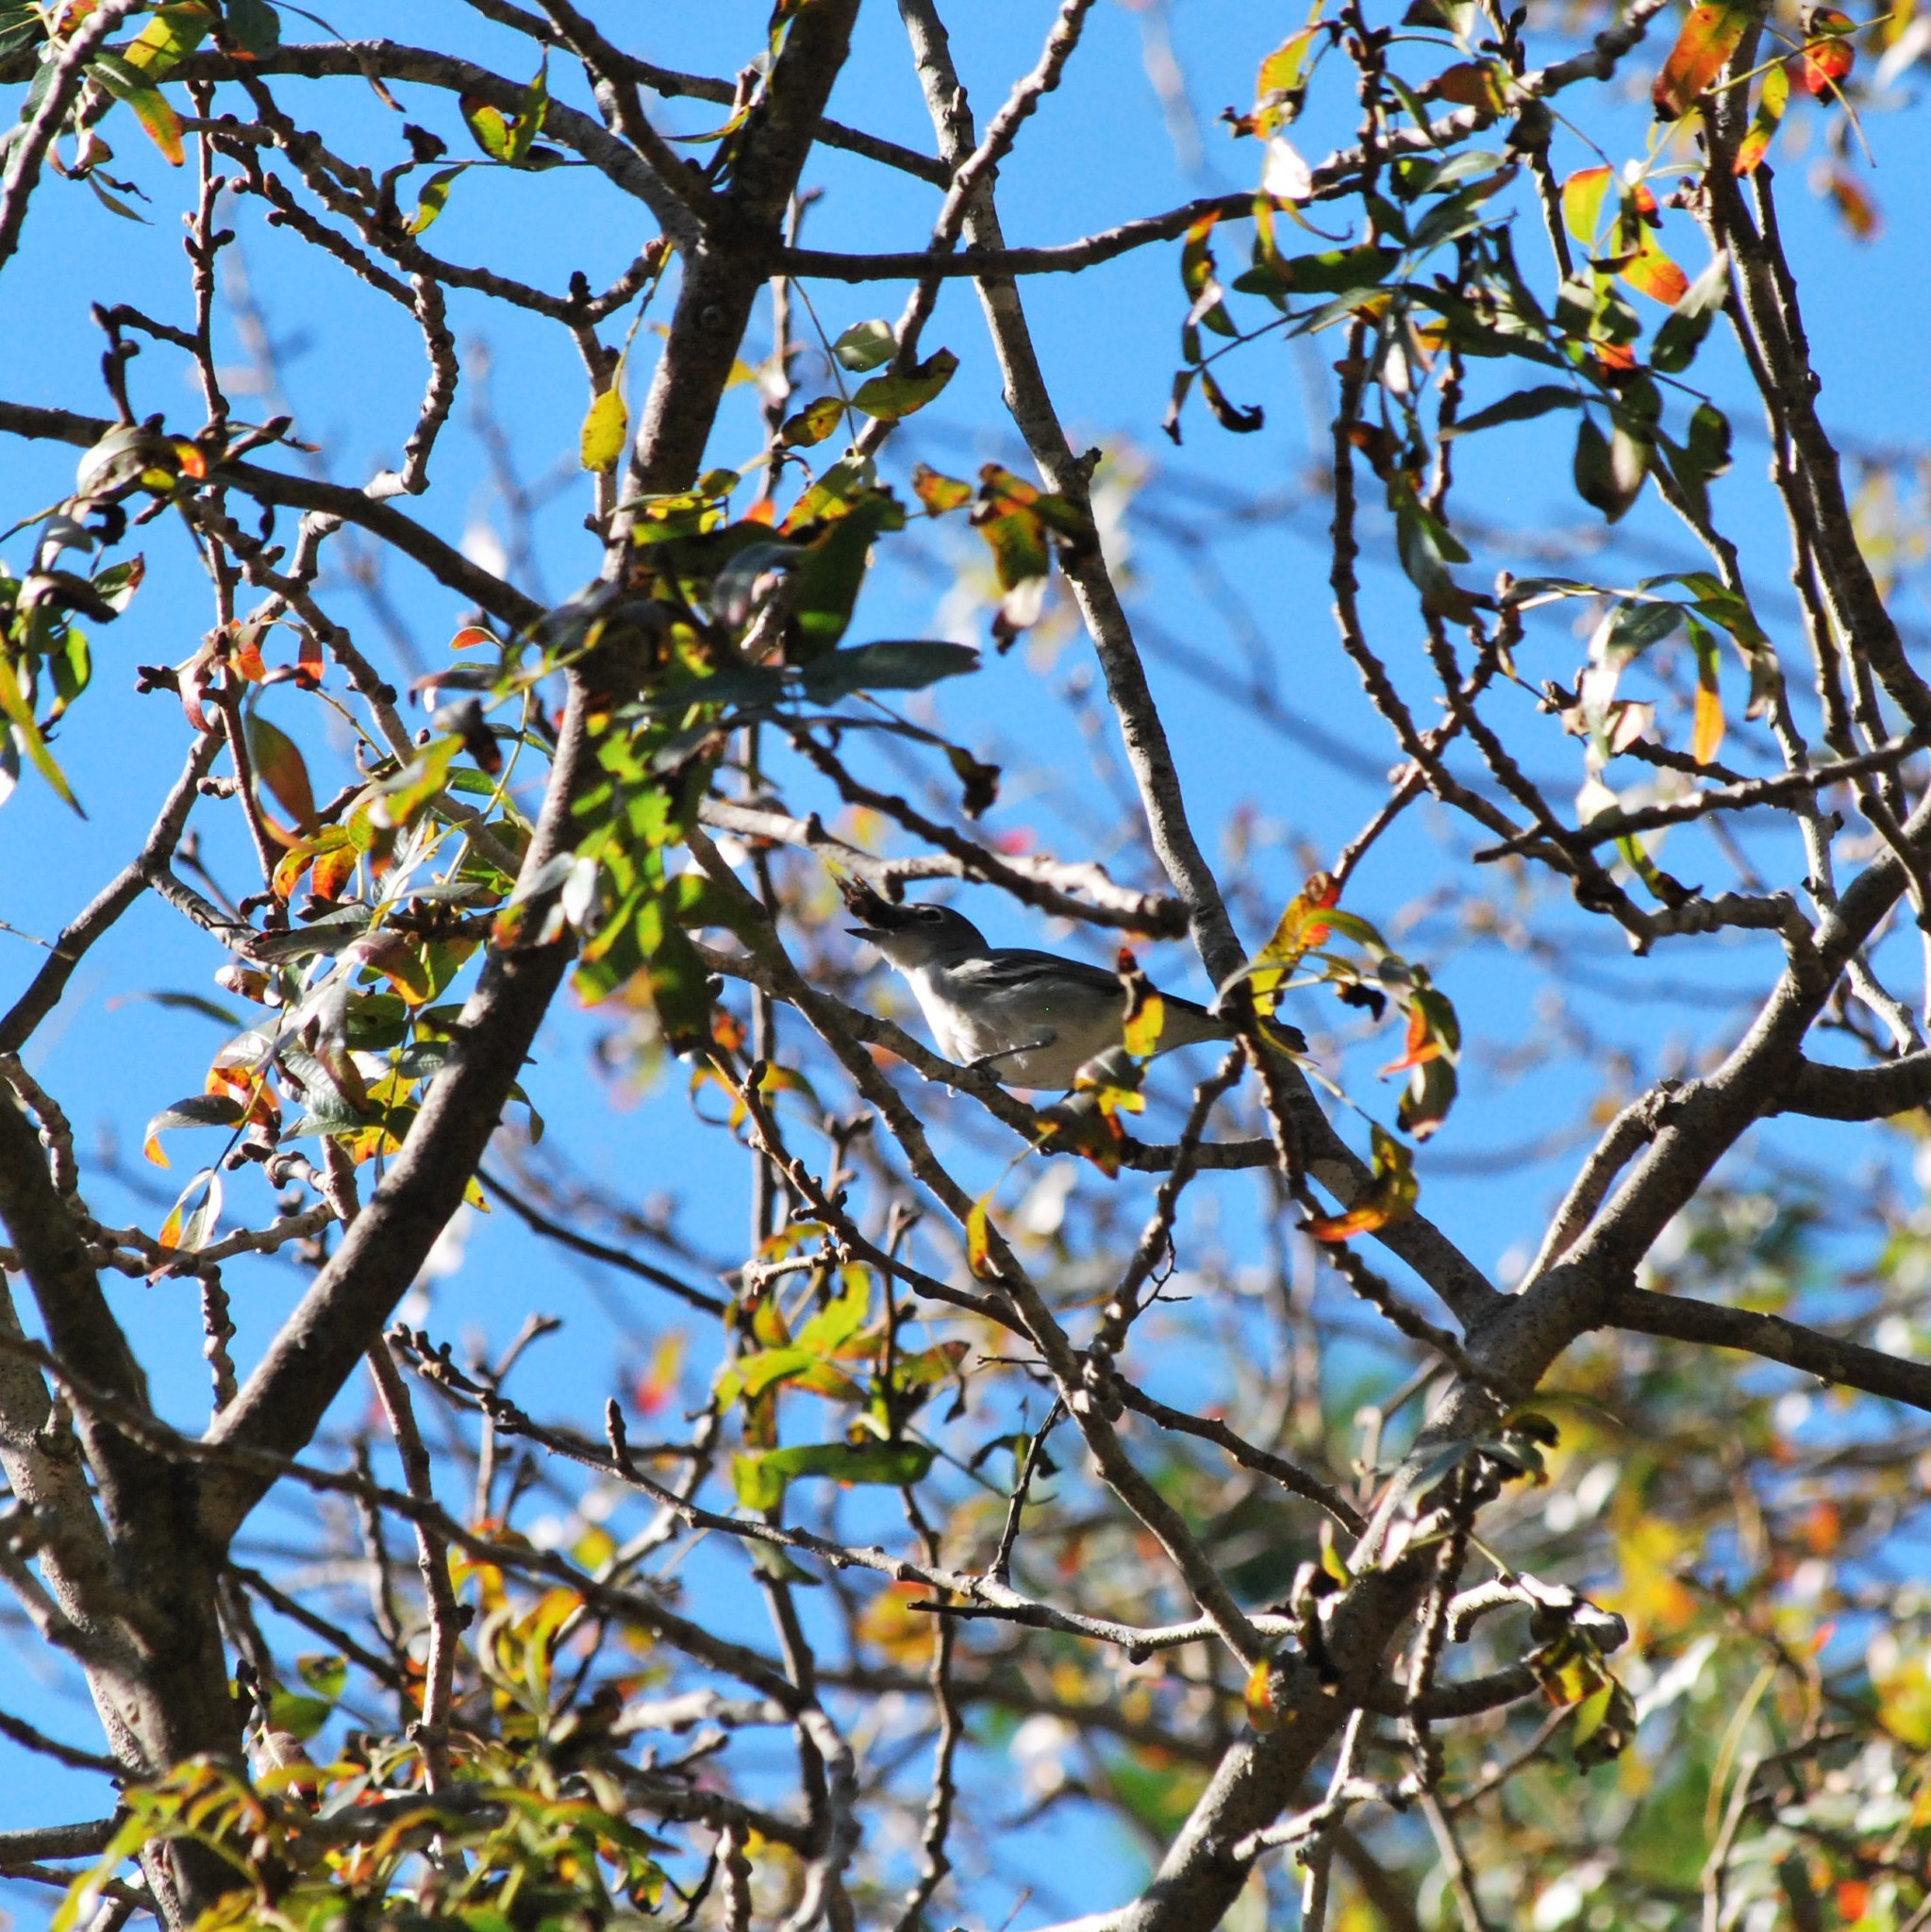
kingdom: Animalia
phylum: Chordata
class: Aves
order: Passeriformes
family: Vireonidae
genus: Vireo
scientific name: Vireo plumbeus
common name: Plumbeous vireo
